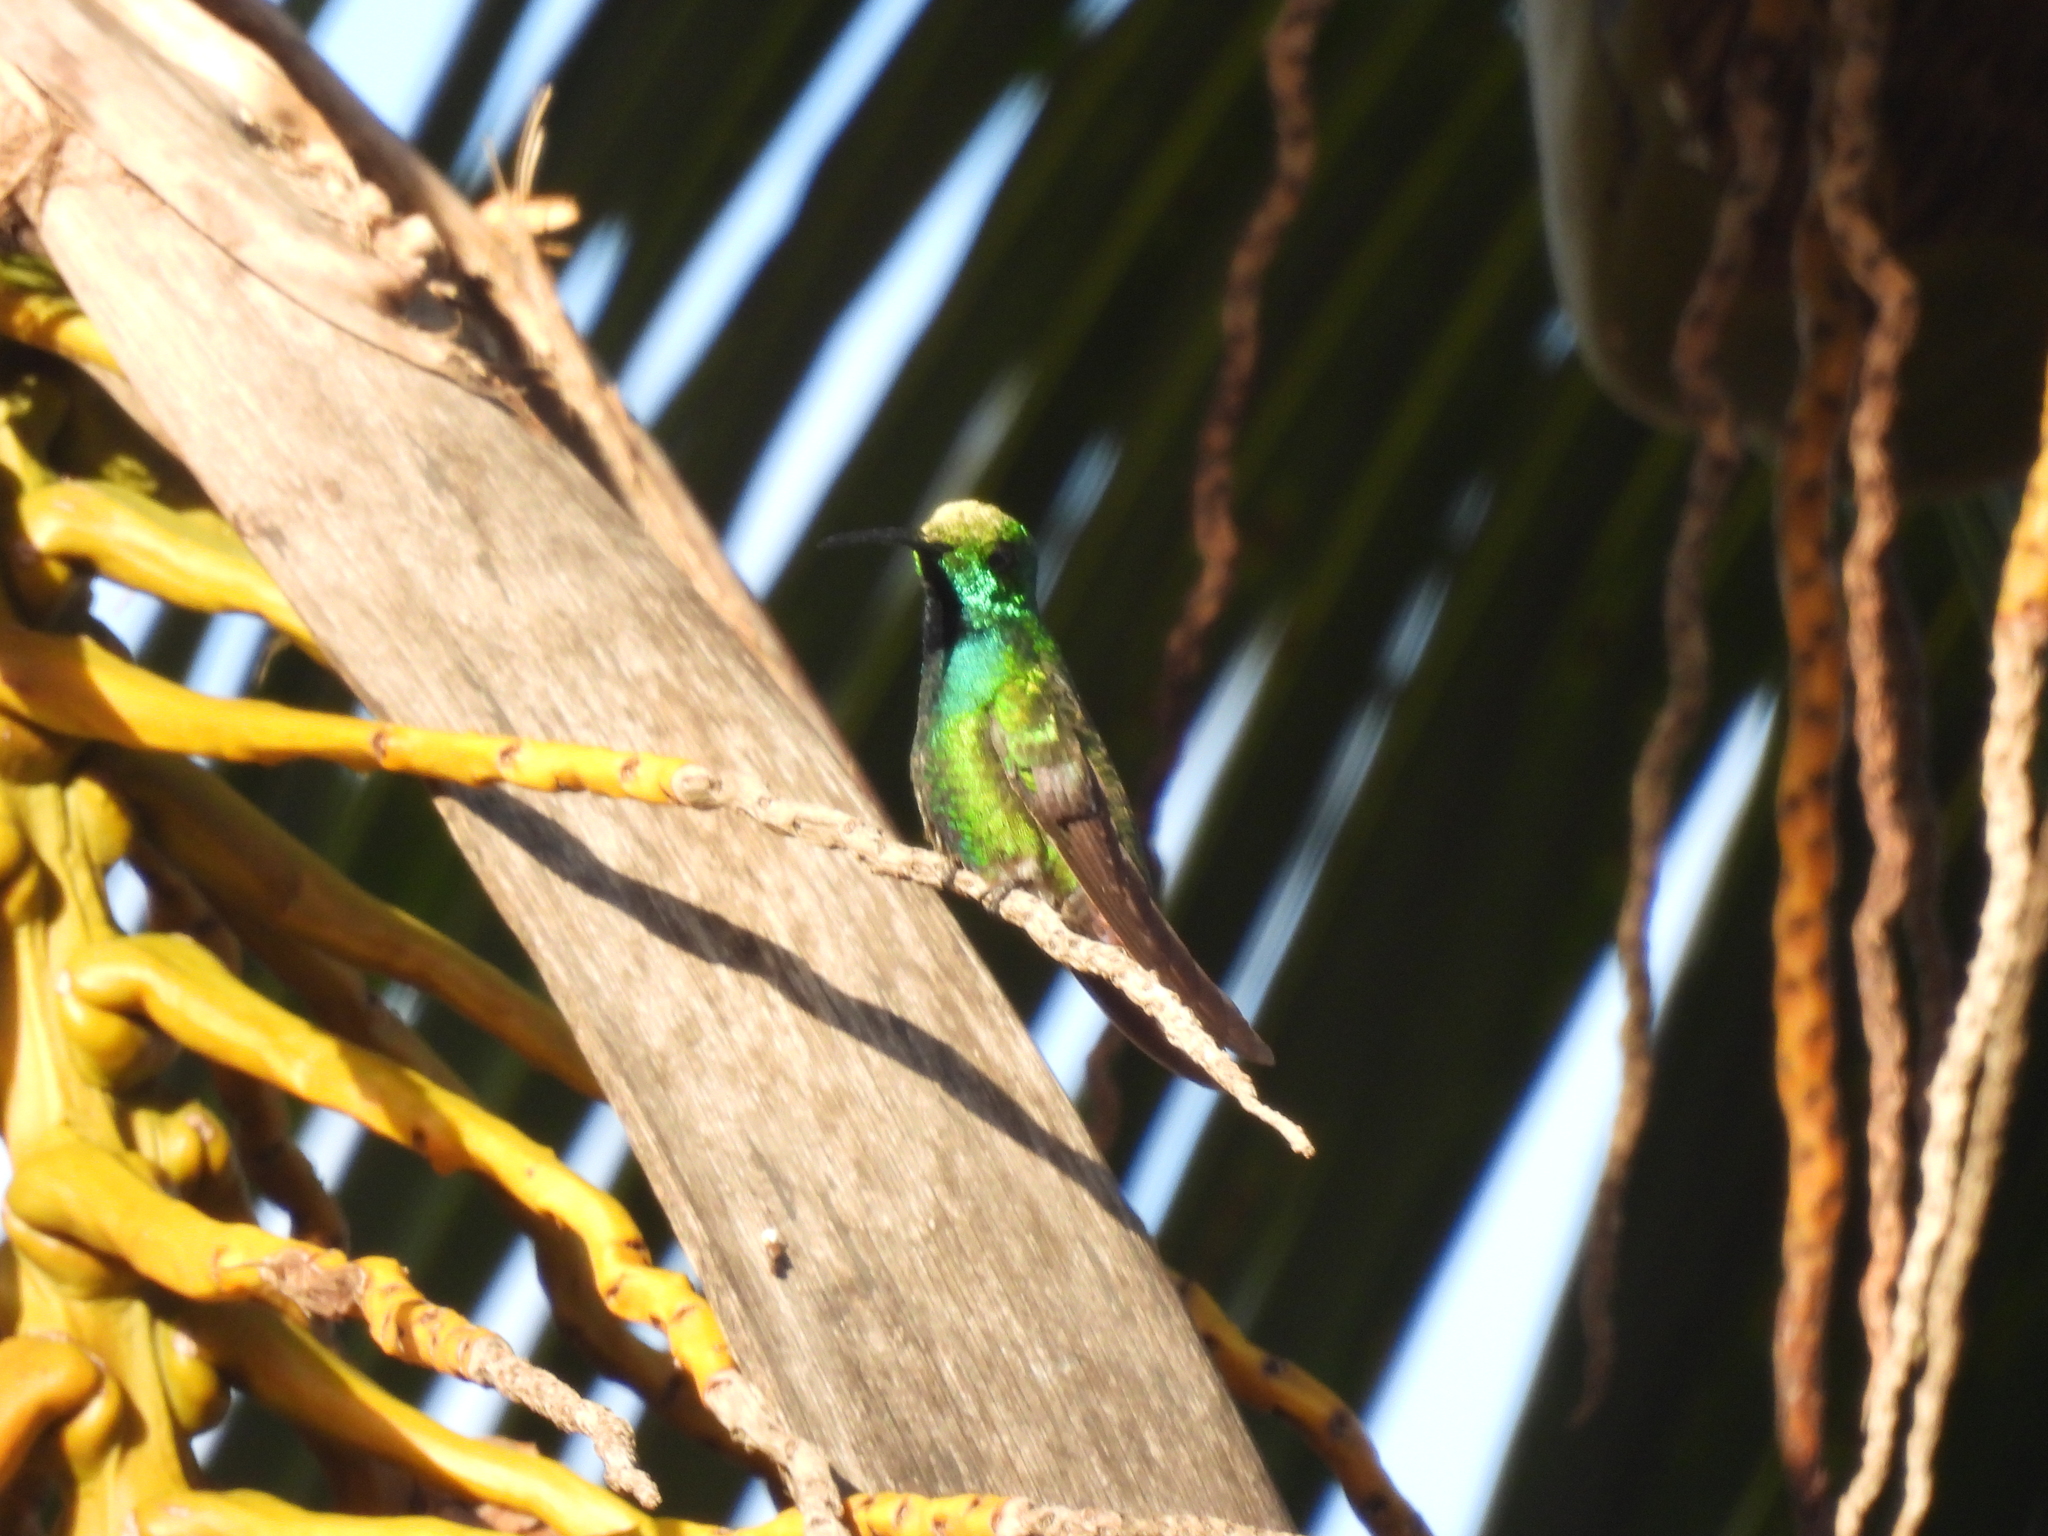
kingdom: Animalia
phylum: Chordata
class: Aves
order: Apodiformes
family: Trochilidae
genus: Anthracothorax
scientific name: Anthracothorax prevostii
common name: Green-breasted mango
